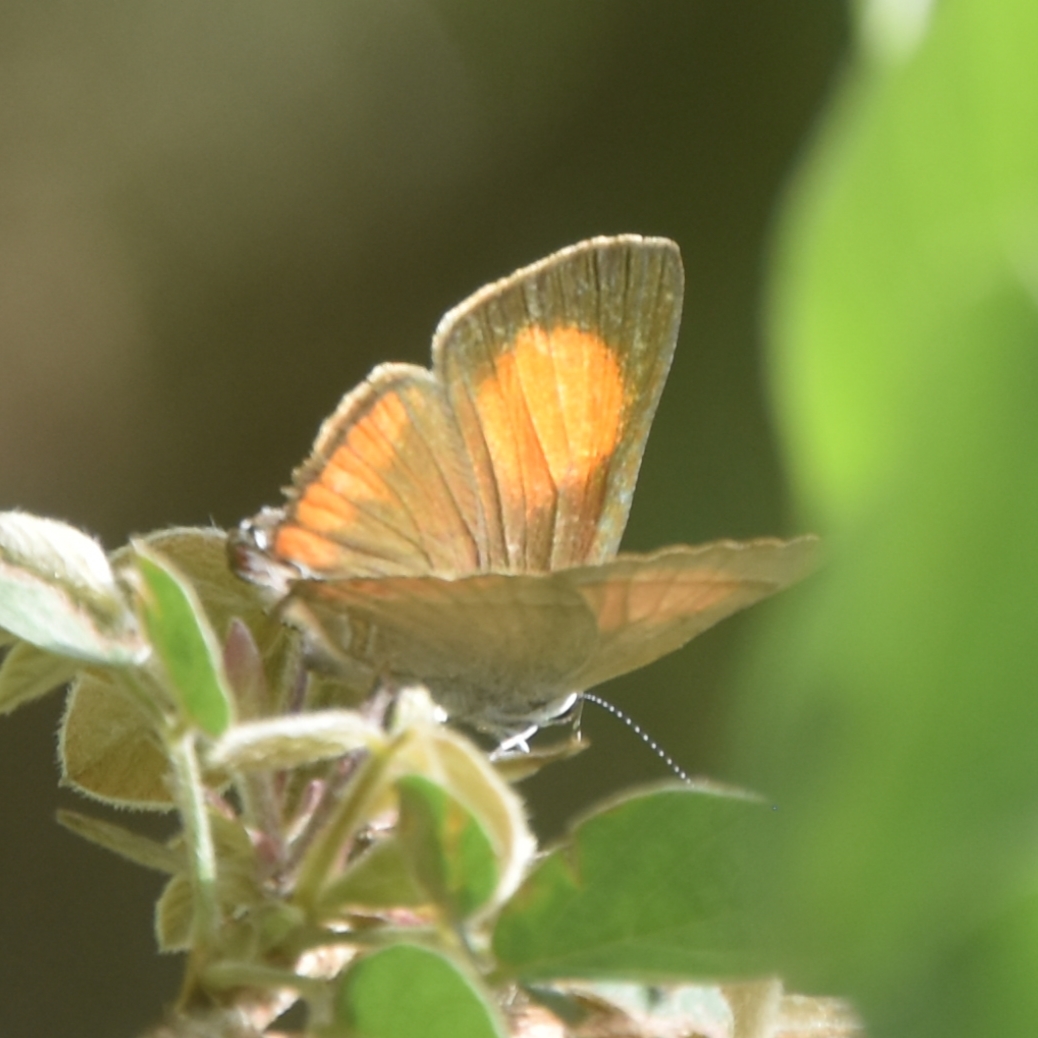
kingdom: Animalia
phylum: Arthropoda
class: Insecta
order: Lepidoptera
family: Lycaenidae
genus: Rapala
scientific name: Rapala selira
